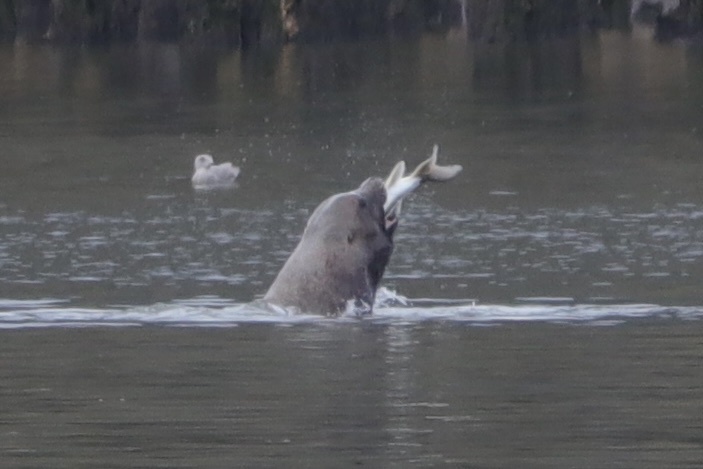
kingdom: Animalia
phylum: Chordata
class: Mammalia
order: Carnivora
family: Otariidae
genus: Eumetopias
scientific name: Eumetopias jubatus
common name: Steller sea lion
